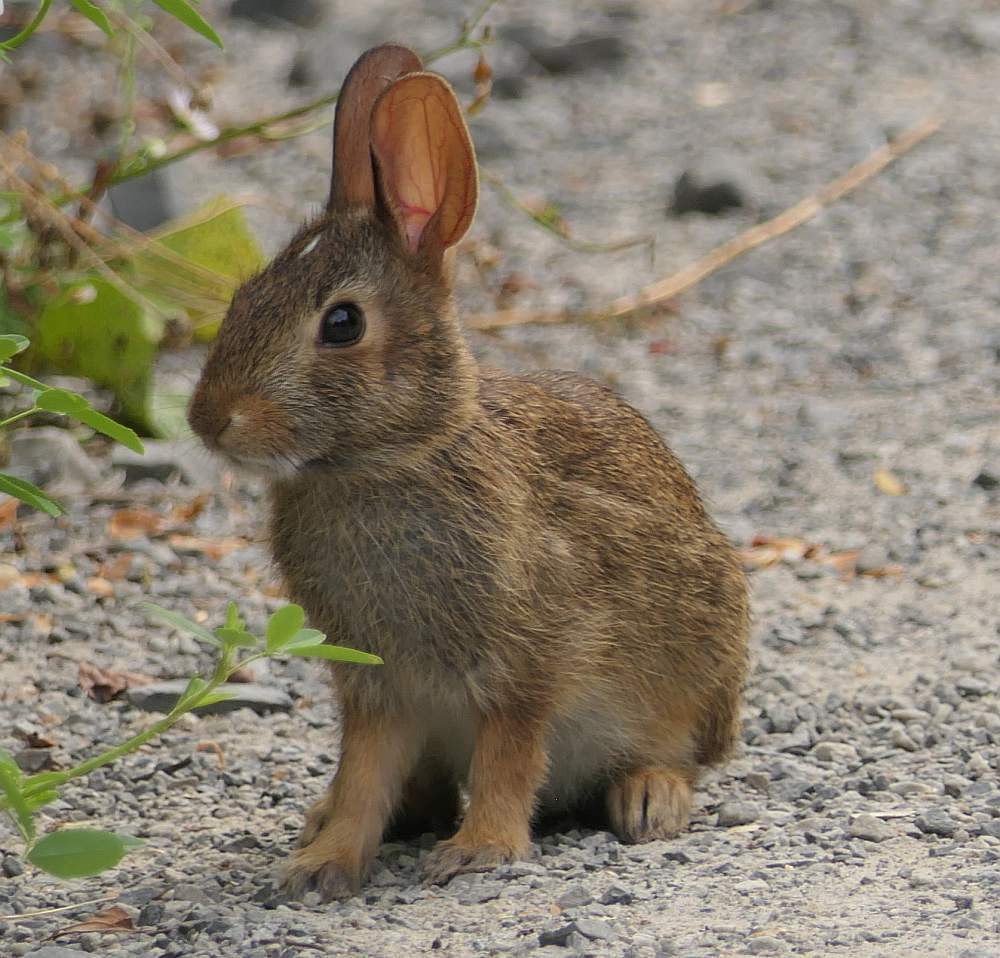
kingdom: Animalia
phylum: Chordata
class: Mammalia
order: Lagomorpha
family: Leporidae
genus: Sylvilagus
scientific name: Sylvilagus floridanus
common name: Eastern cottontail
